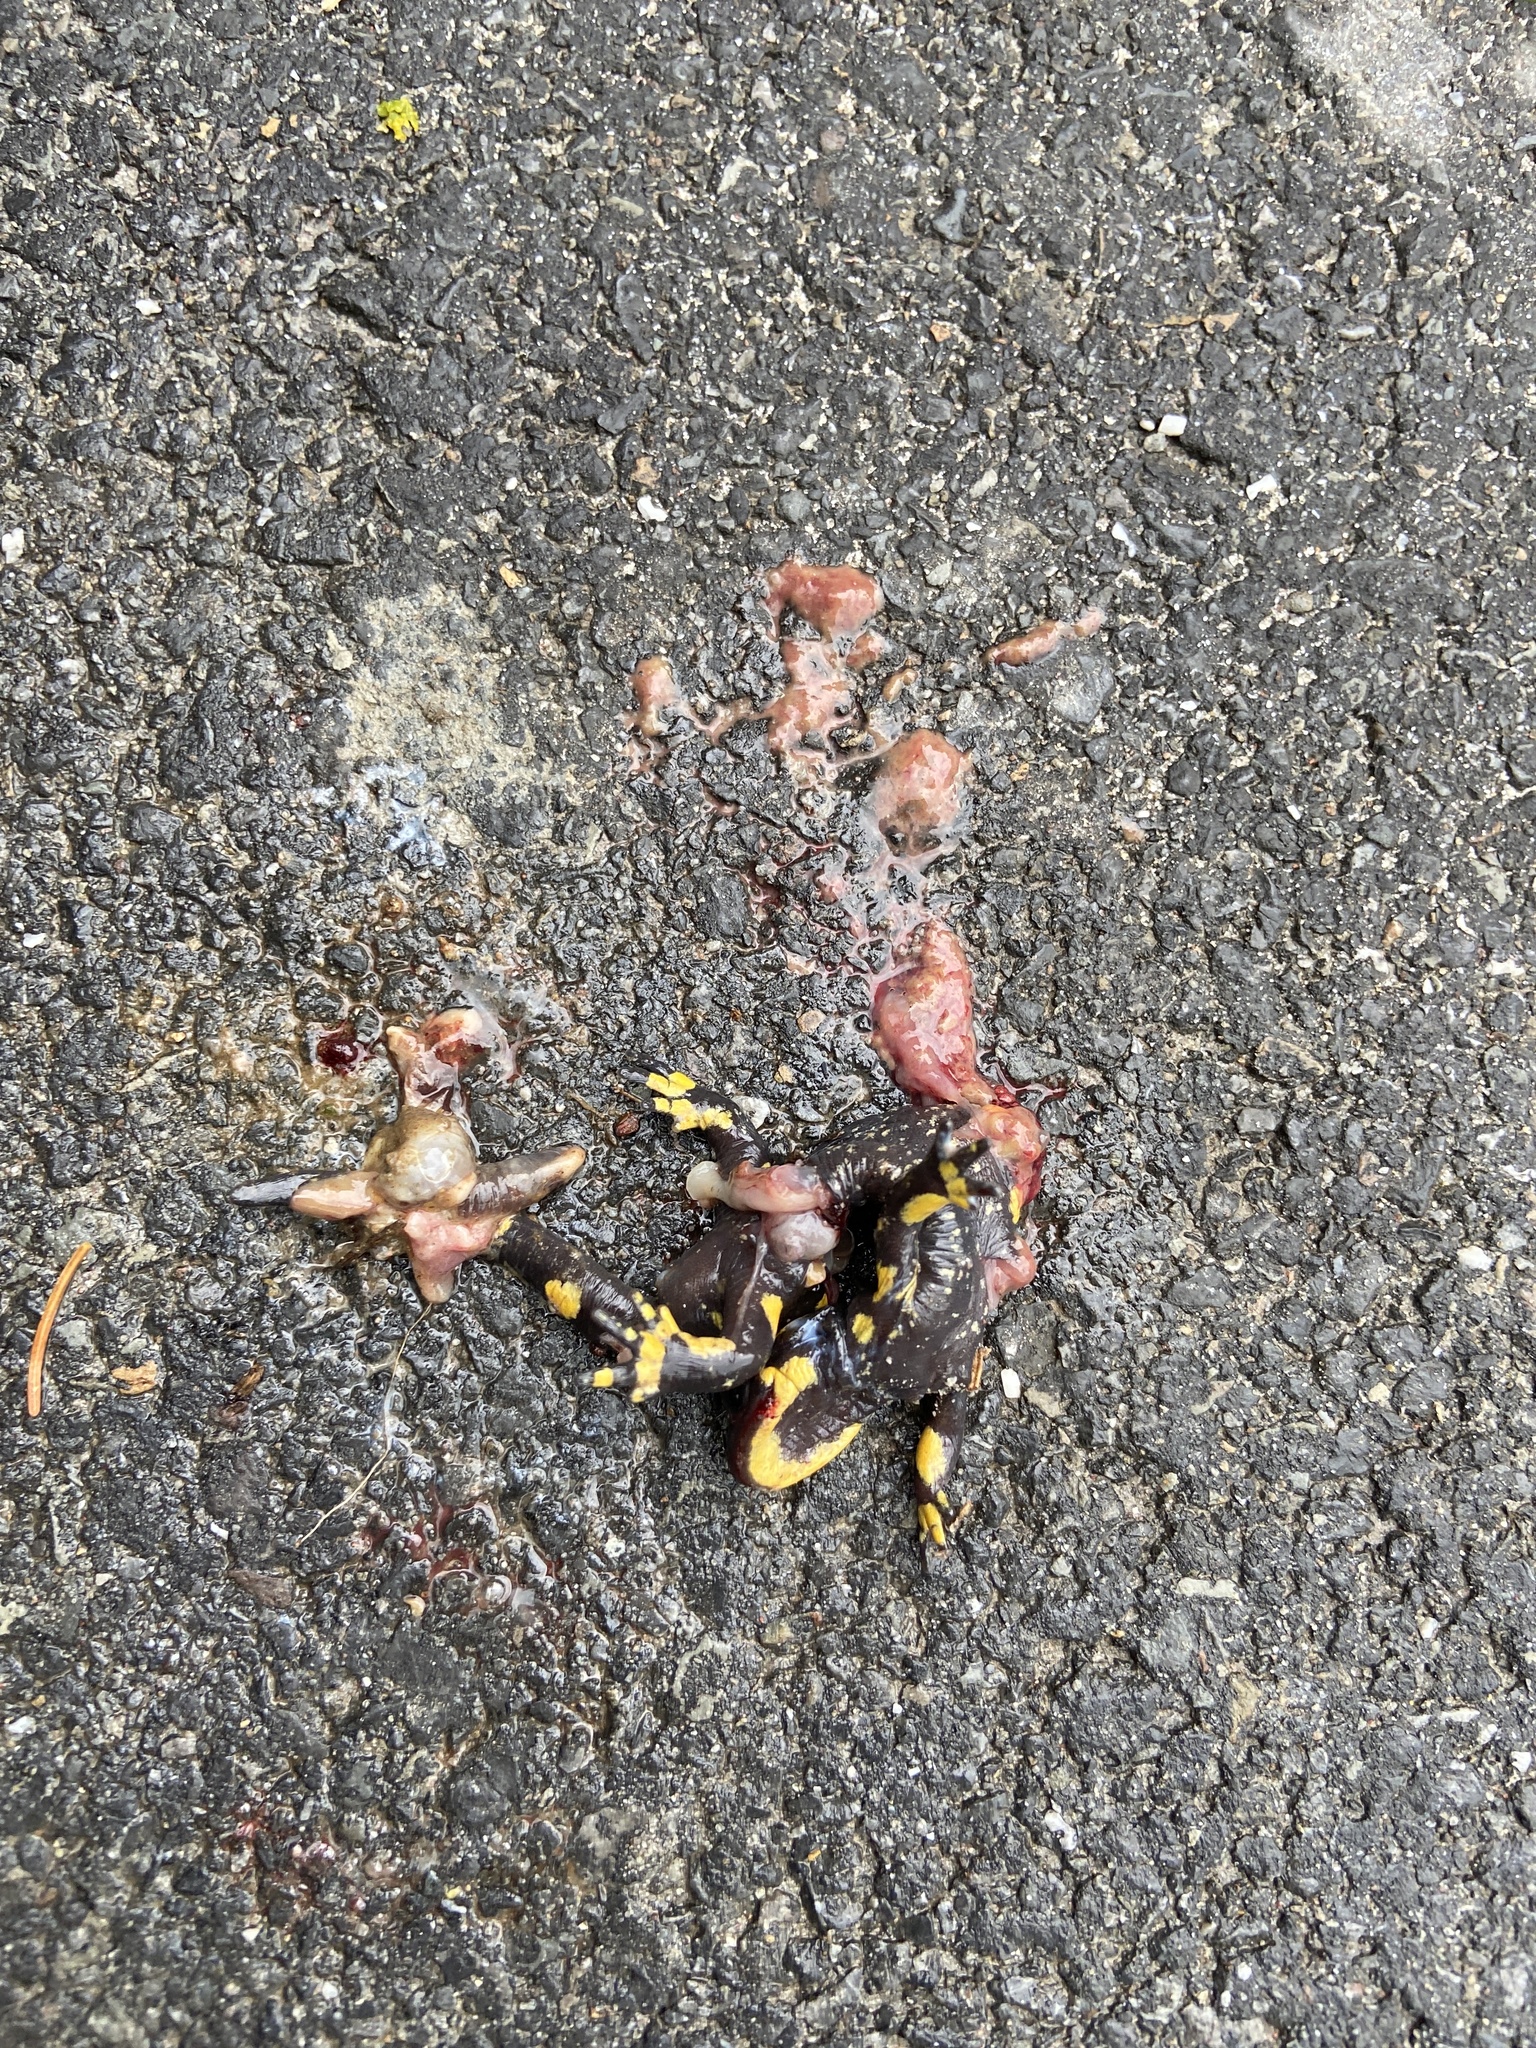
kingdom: Animalia
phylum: Chordata
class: Amphibia
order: Caudata
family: Salamandridae
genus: Salamandra
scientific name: Salamandra salamandra
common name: Fire salamander
